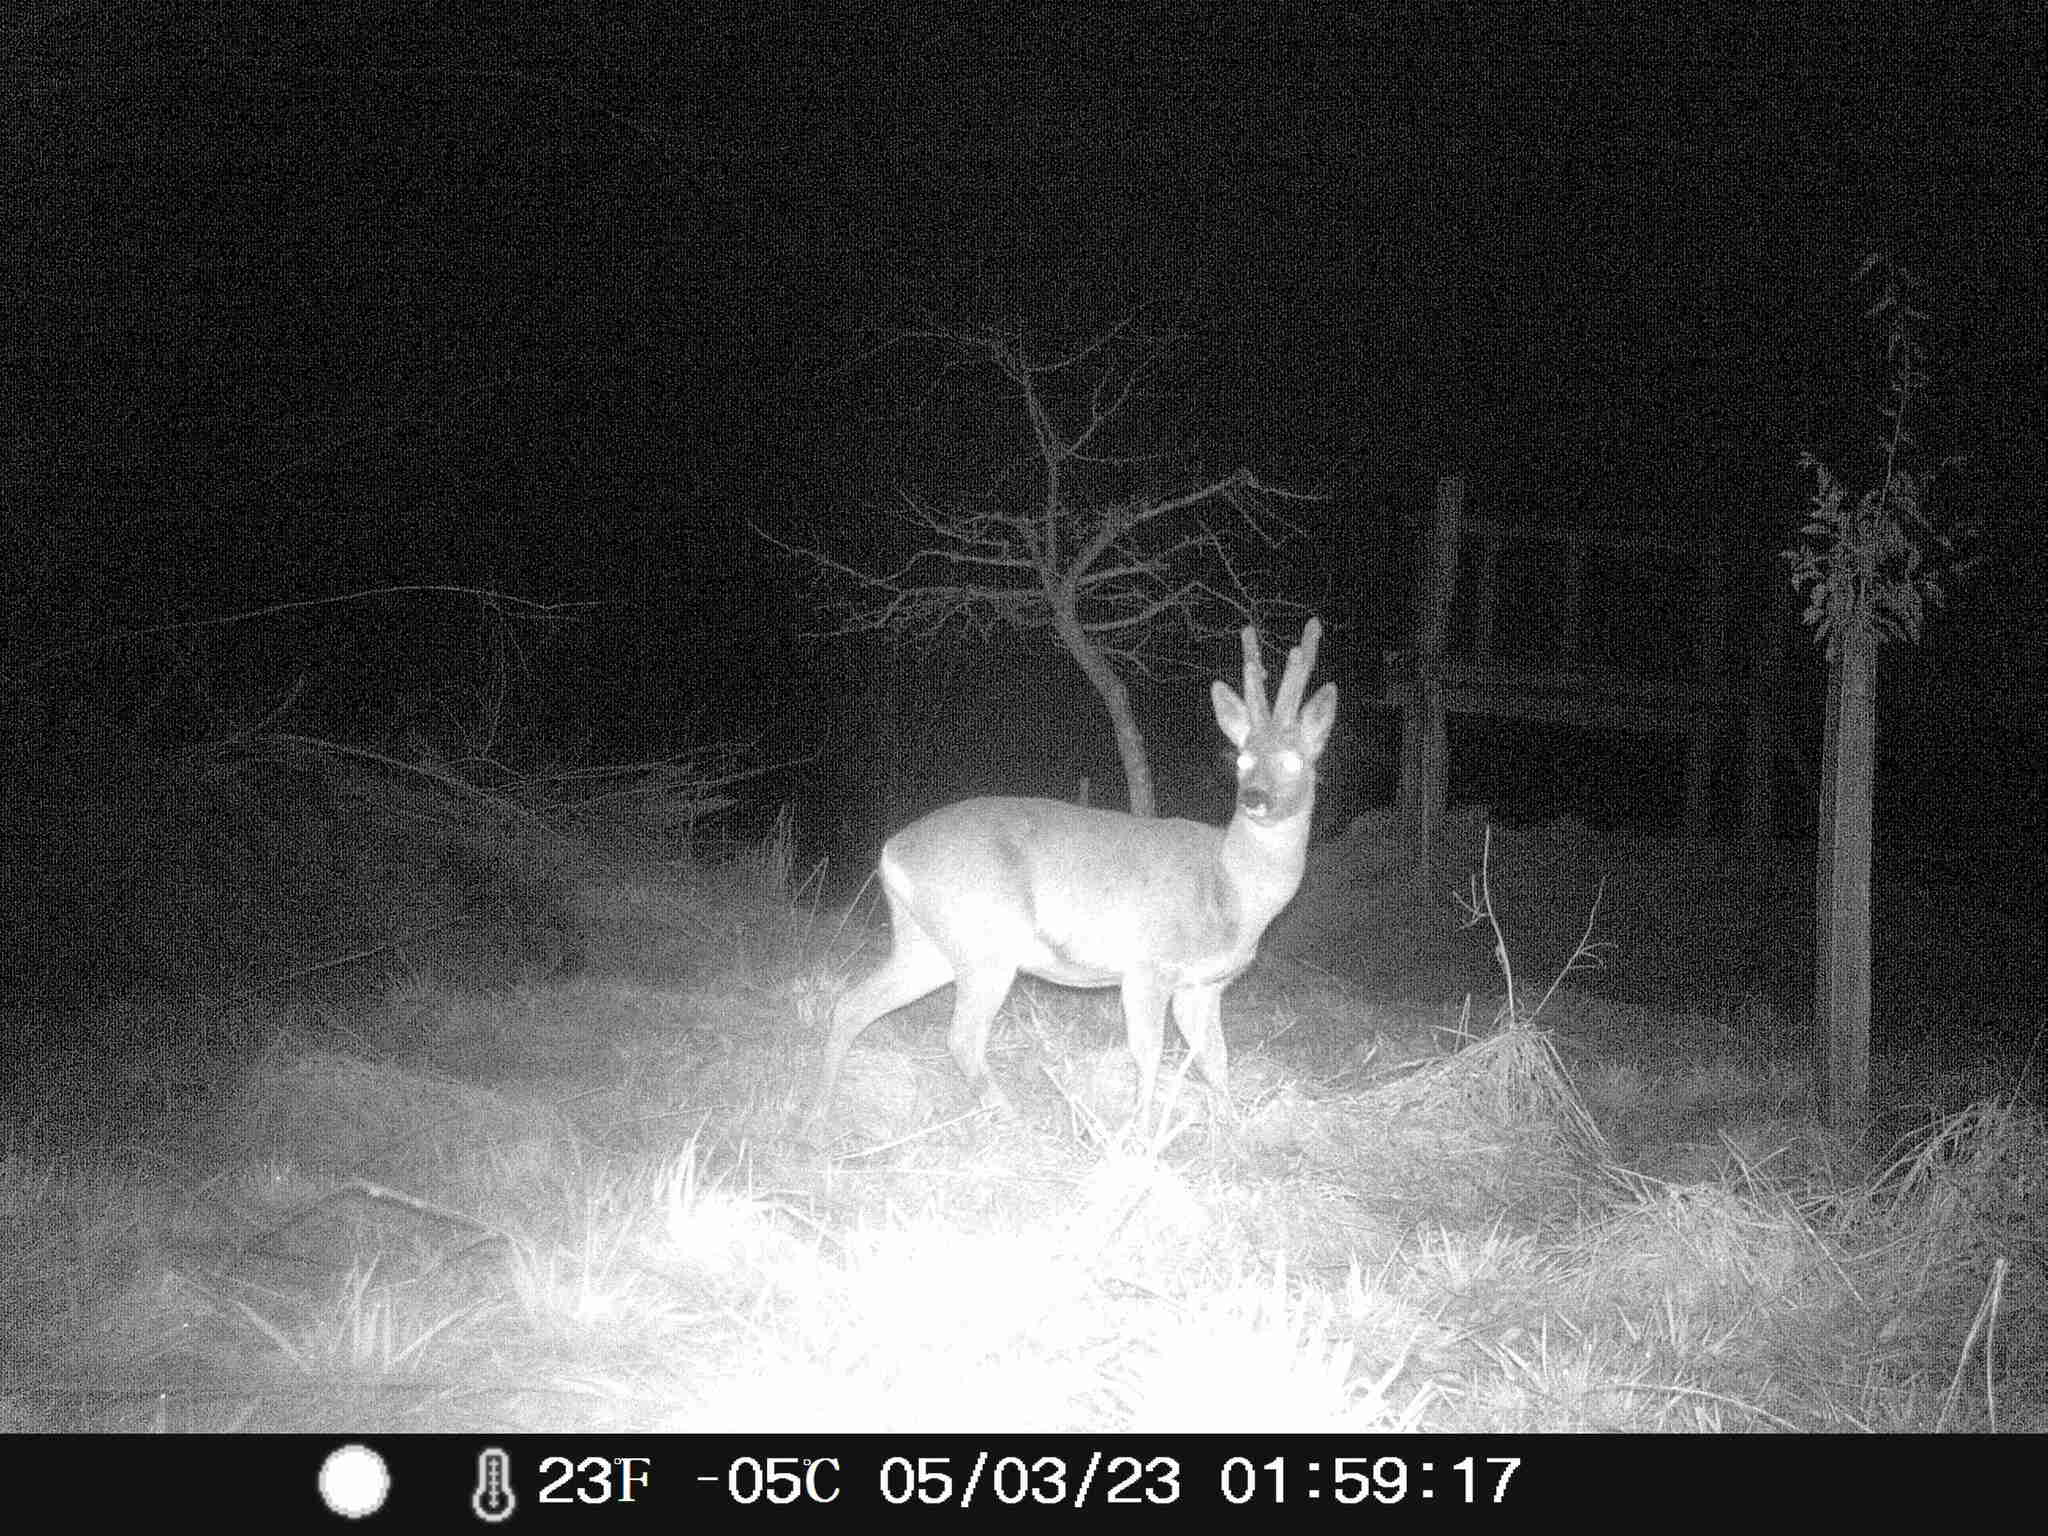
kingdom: Animalia
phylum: Chordata
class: Mammalia
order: Artiodactyla
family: Cervidae
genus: Capreolus
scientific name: Capreolus capreolus
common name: Western roe deer
